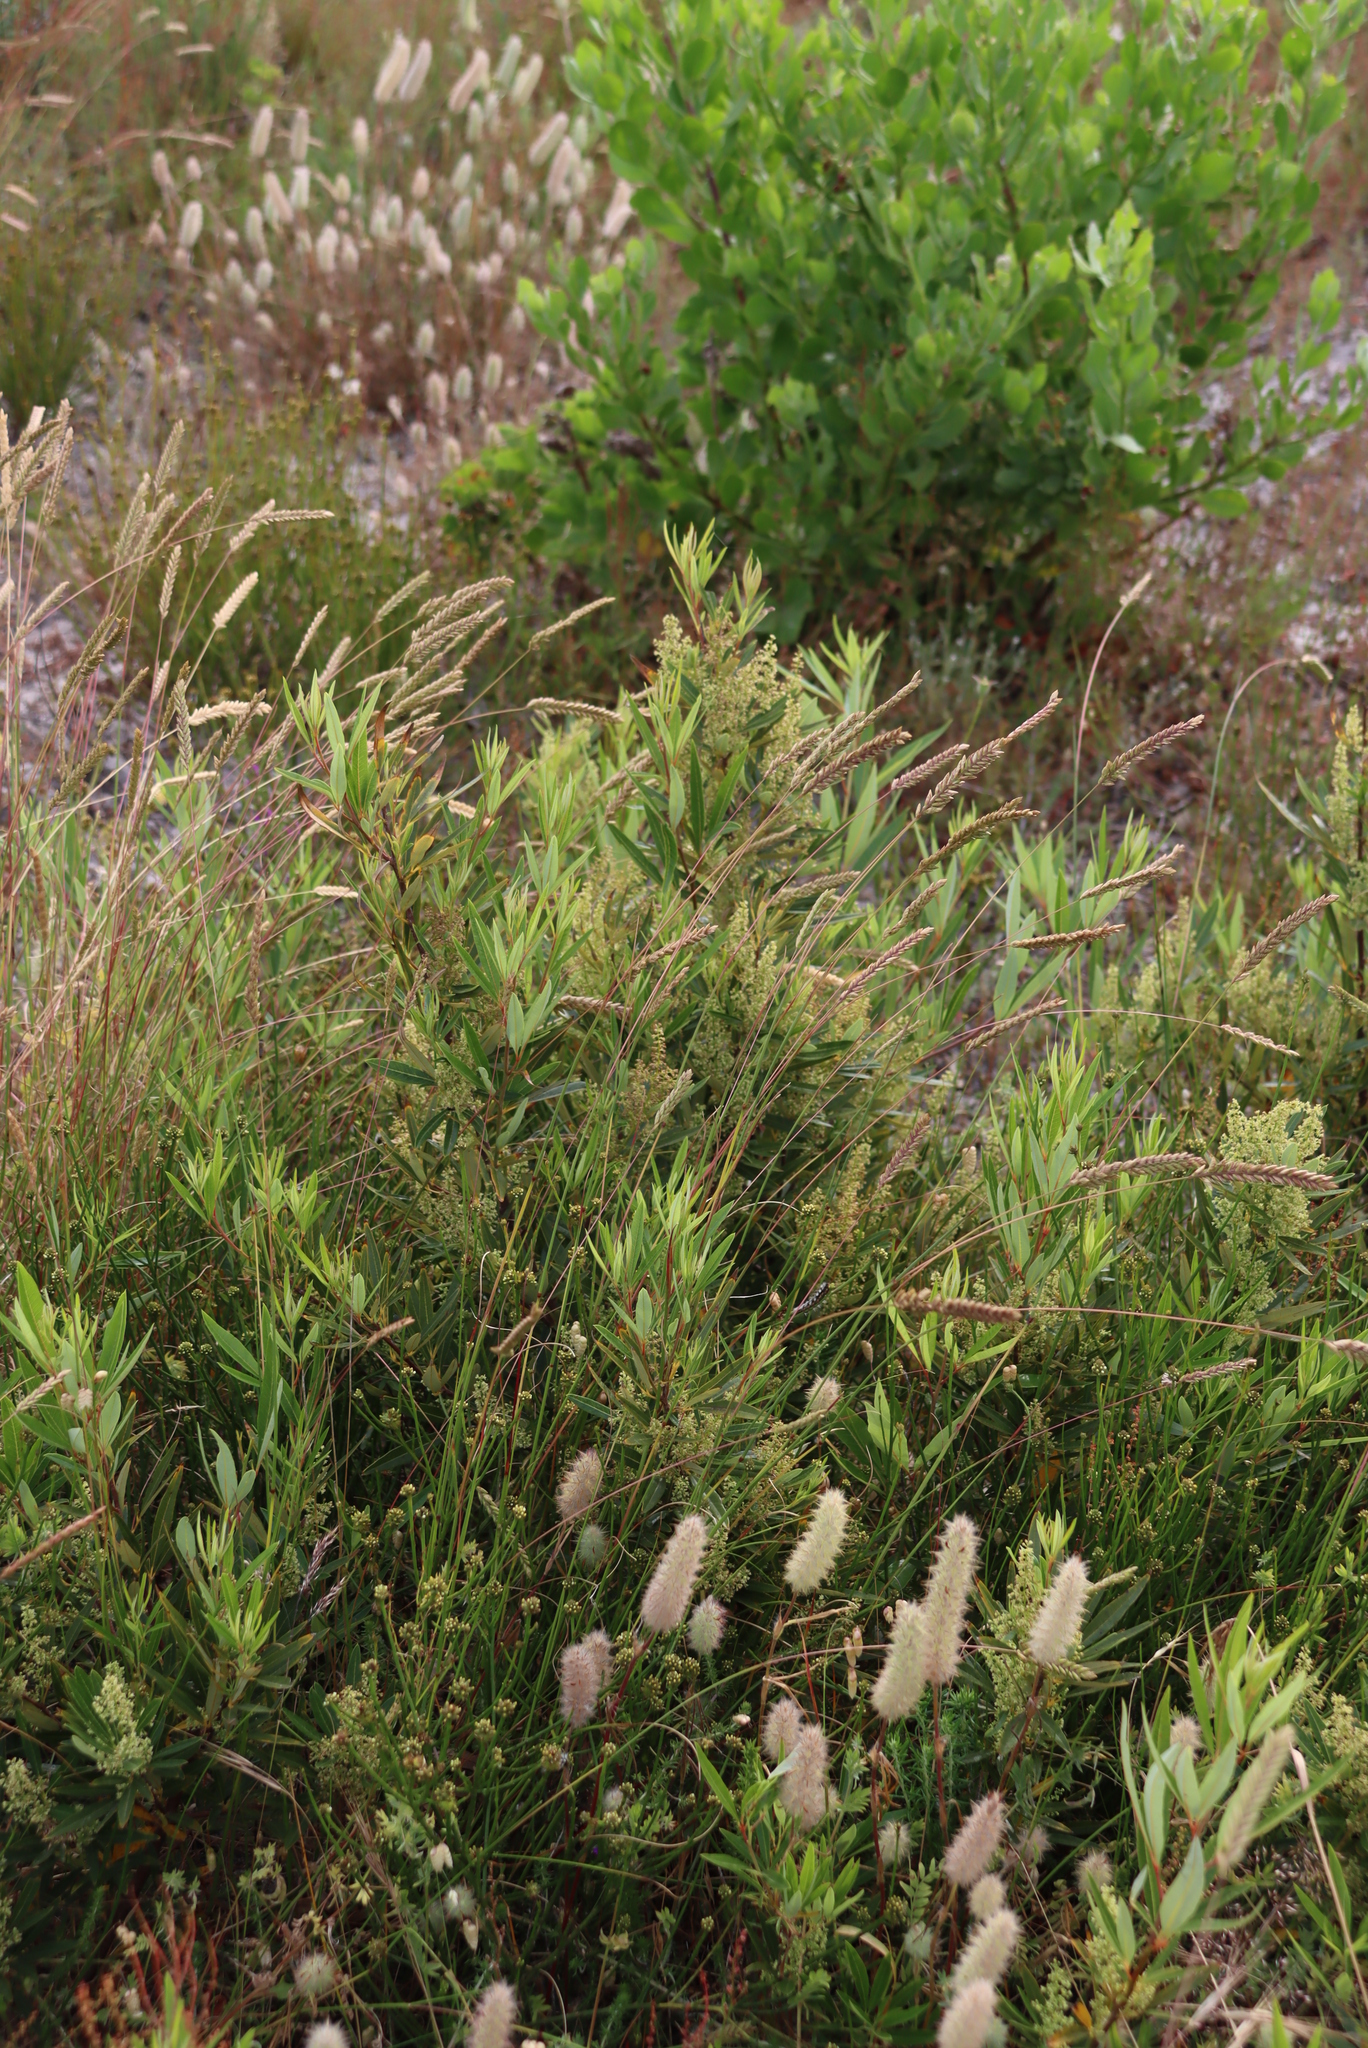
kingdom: Plantae
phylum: Tracheophyta
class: Magnoliopsida
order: Sapindales
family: Anacardiaceae
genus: Searsia
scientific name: Searsia angustifolia
